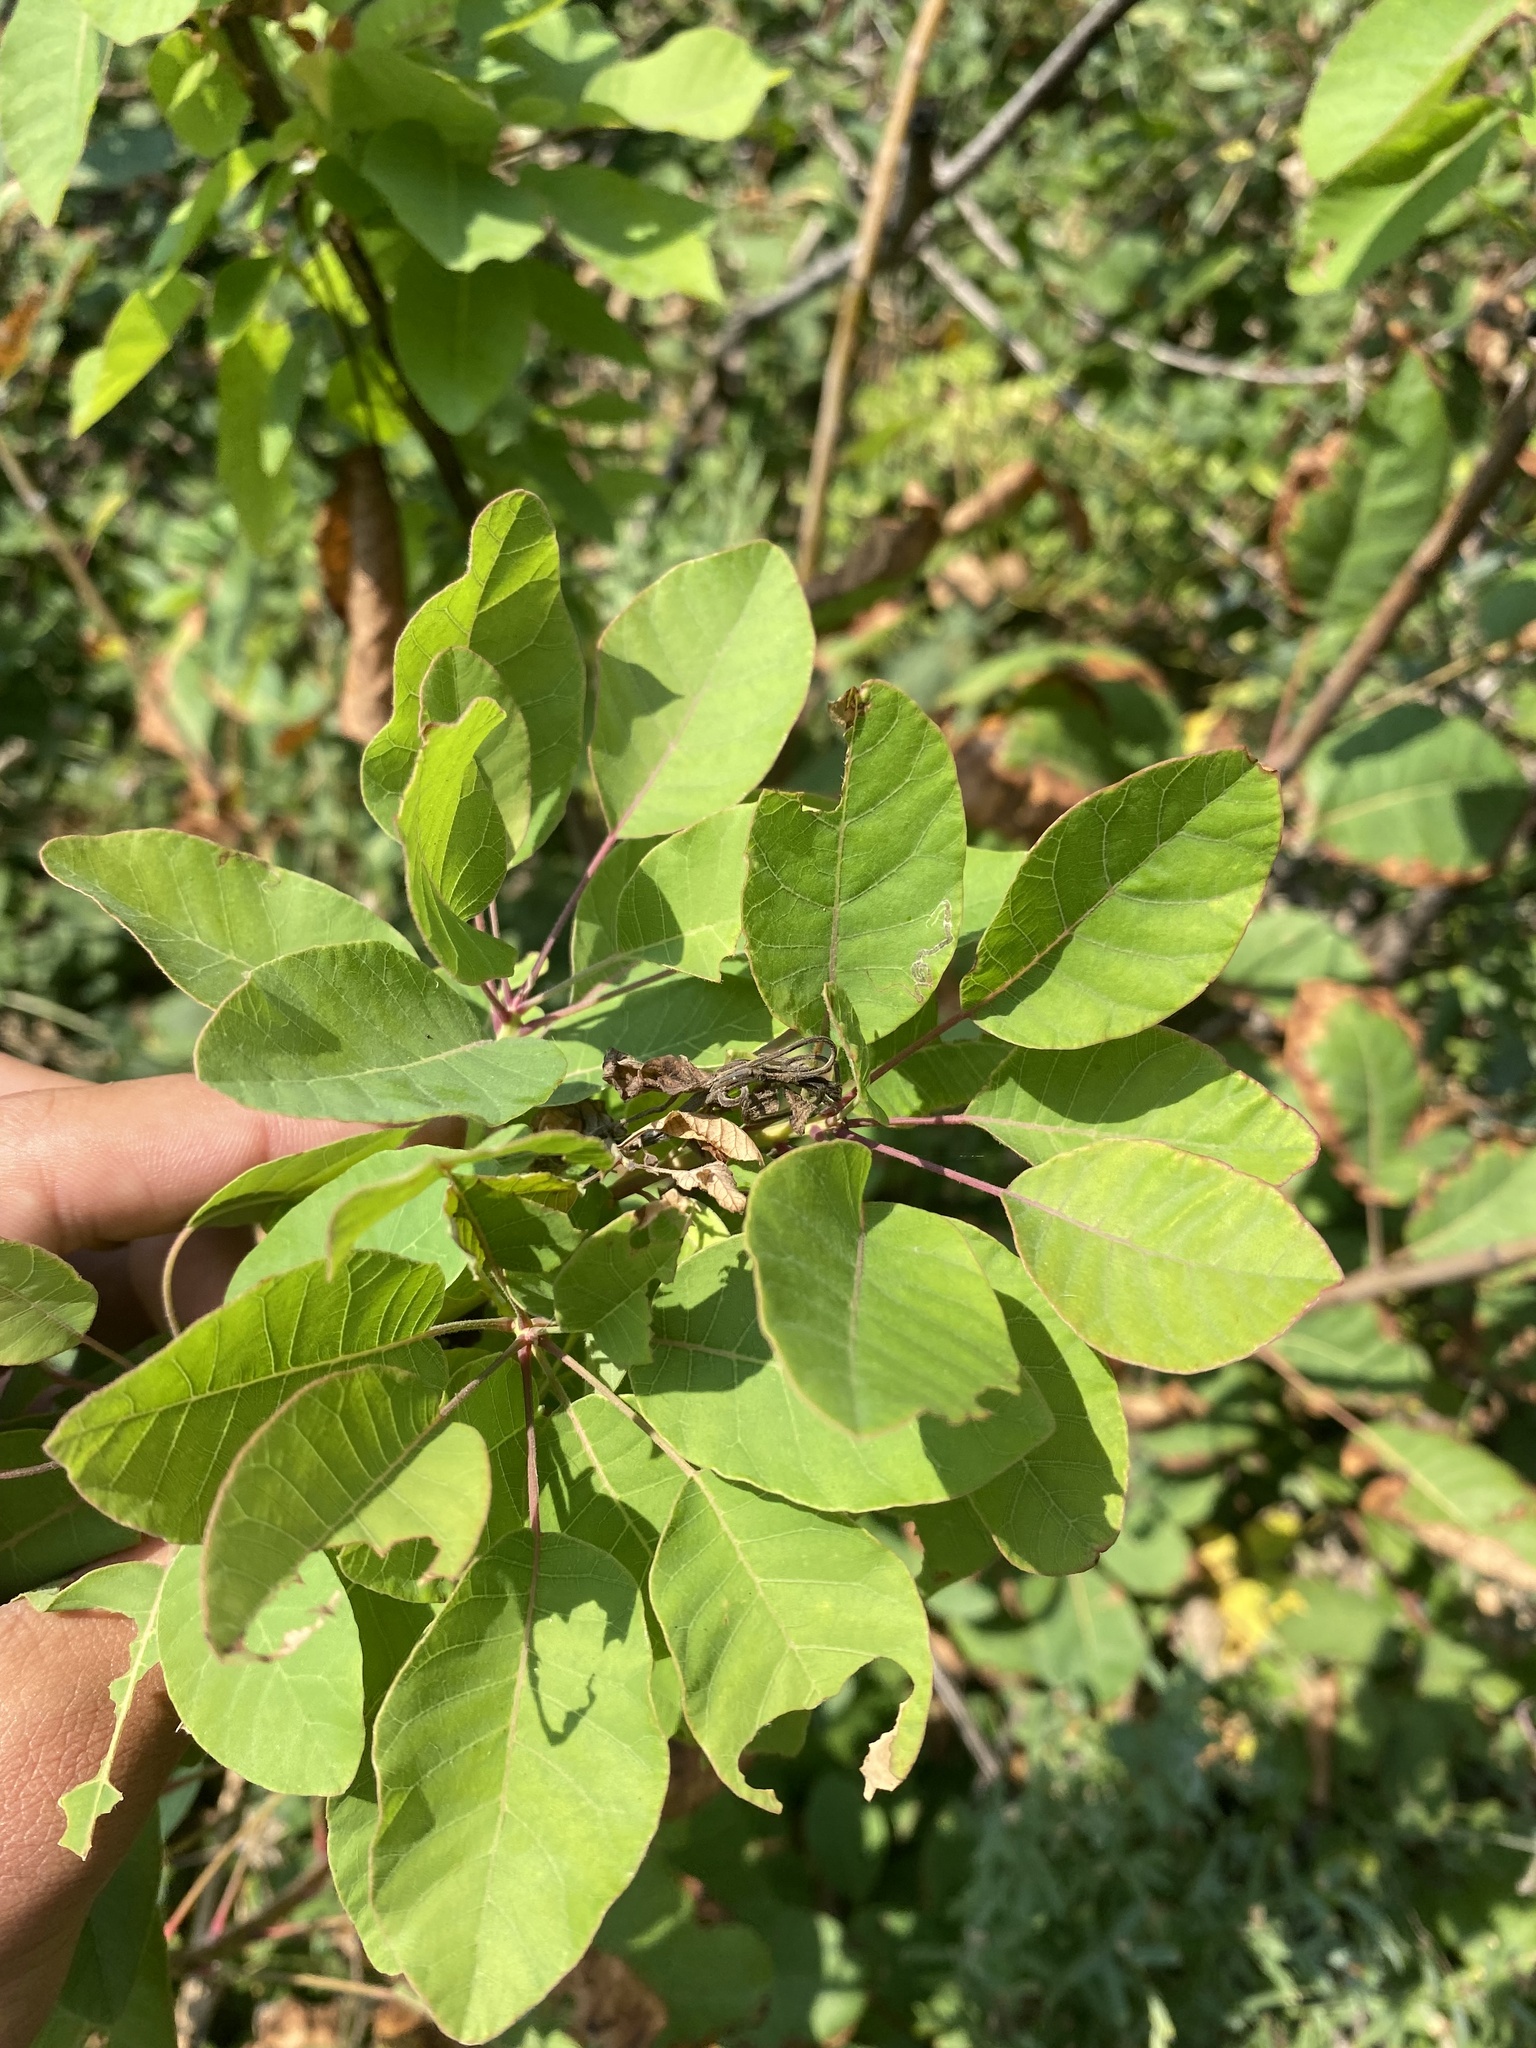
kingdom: Plantae
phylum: Tracheophyta
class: Magnoliopsida
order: Sapindales
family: Anacardiaceae
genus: Cotinus
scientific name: Cotinus coggygria
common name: Smoke-tree
